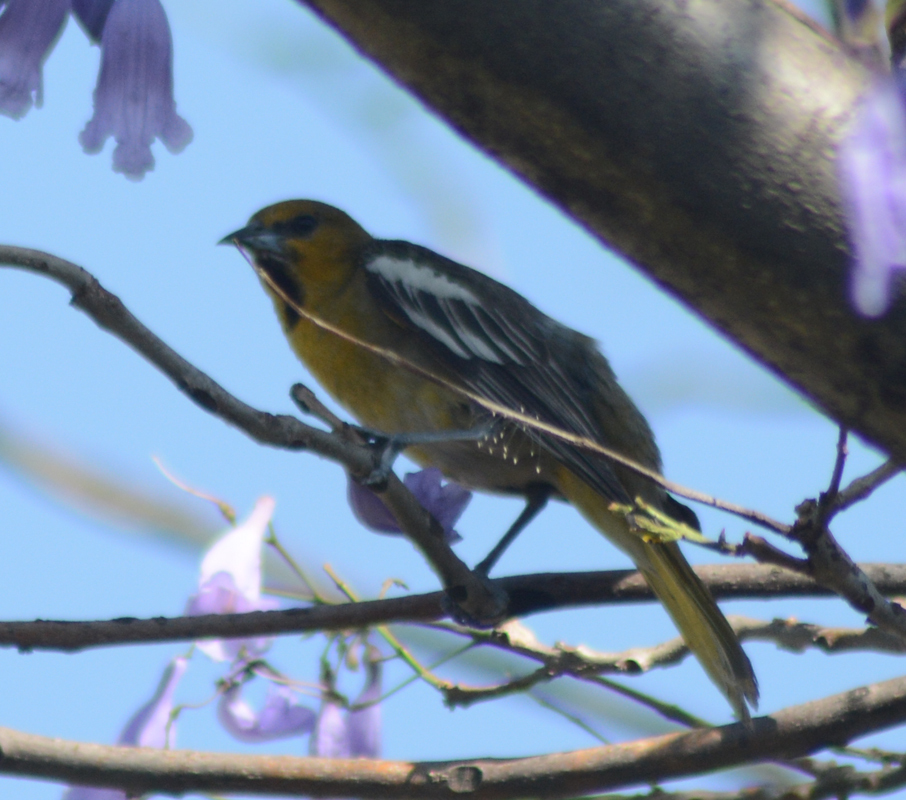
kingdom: Animalia
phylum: Chordata
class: Aves
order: Passeriformes
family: Icteridae
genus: Icterus
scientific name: Icterus bullockii
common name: Bullock's oriole
